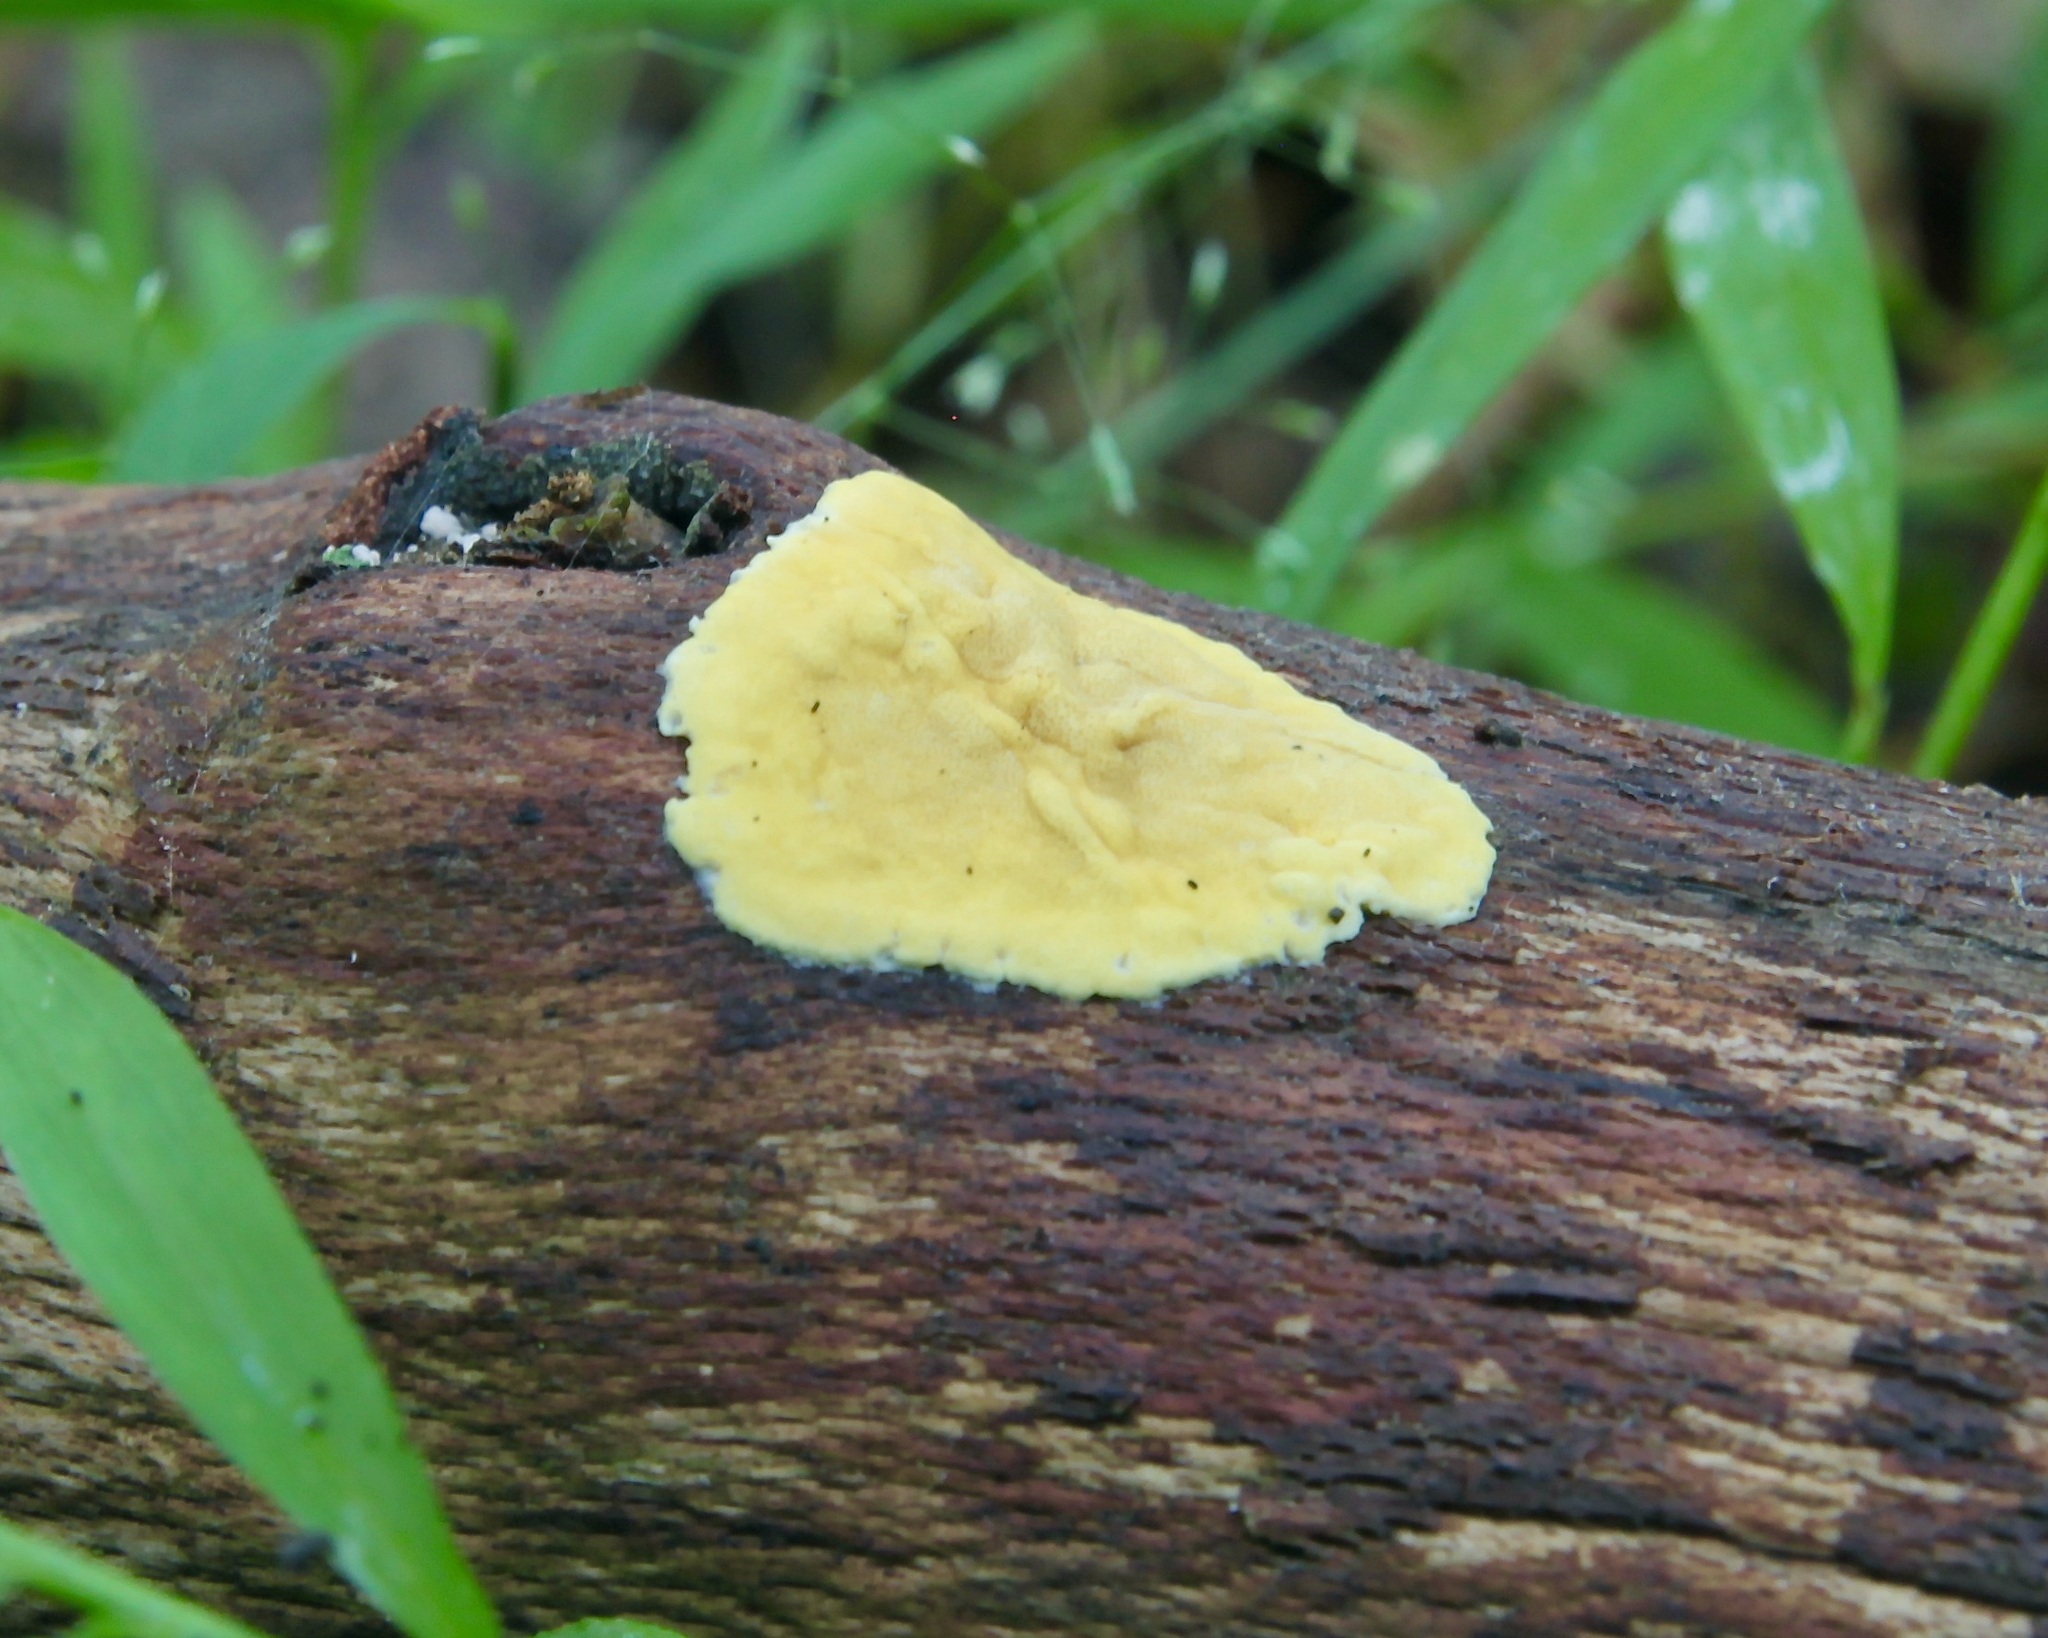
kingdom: Fungi
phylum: Ascomycota
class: Sordariomycetes
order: Hypocreales
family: Hypocreaceae
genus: Trichoderma
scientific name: Trichoderma sulphureum
